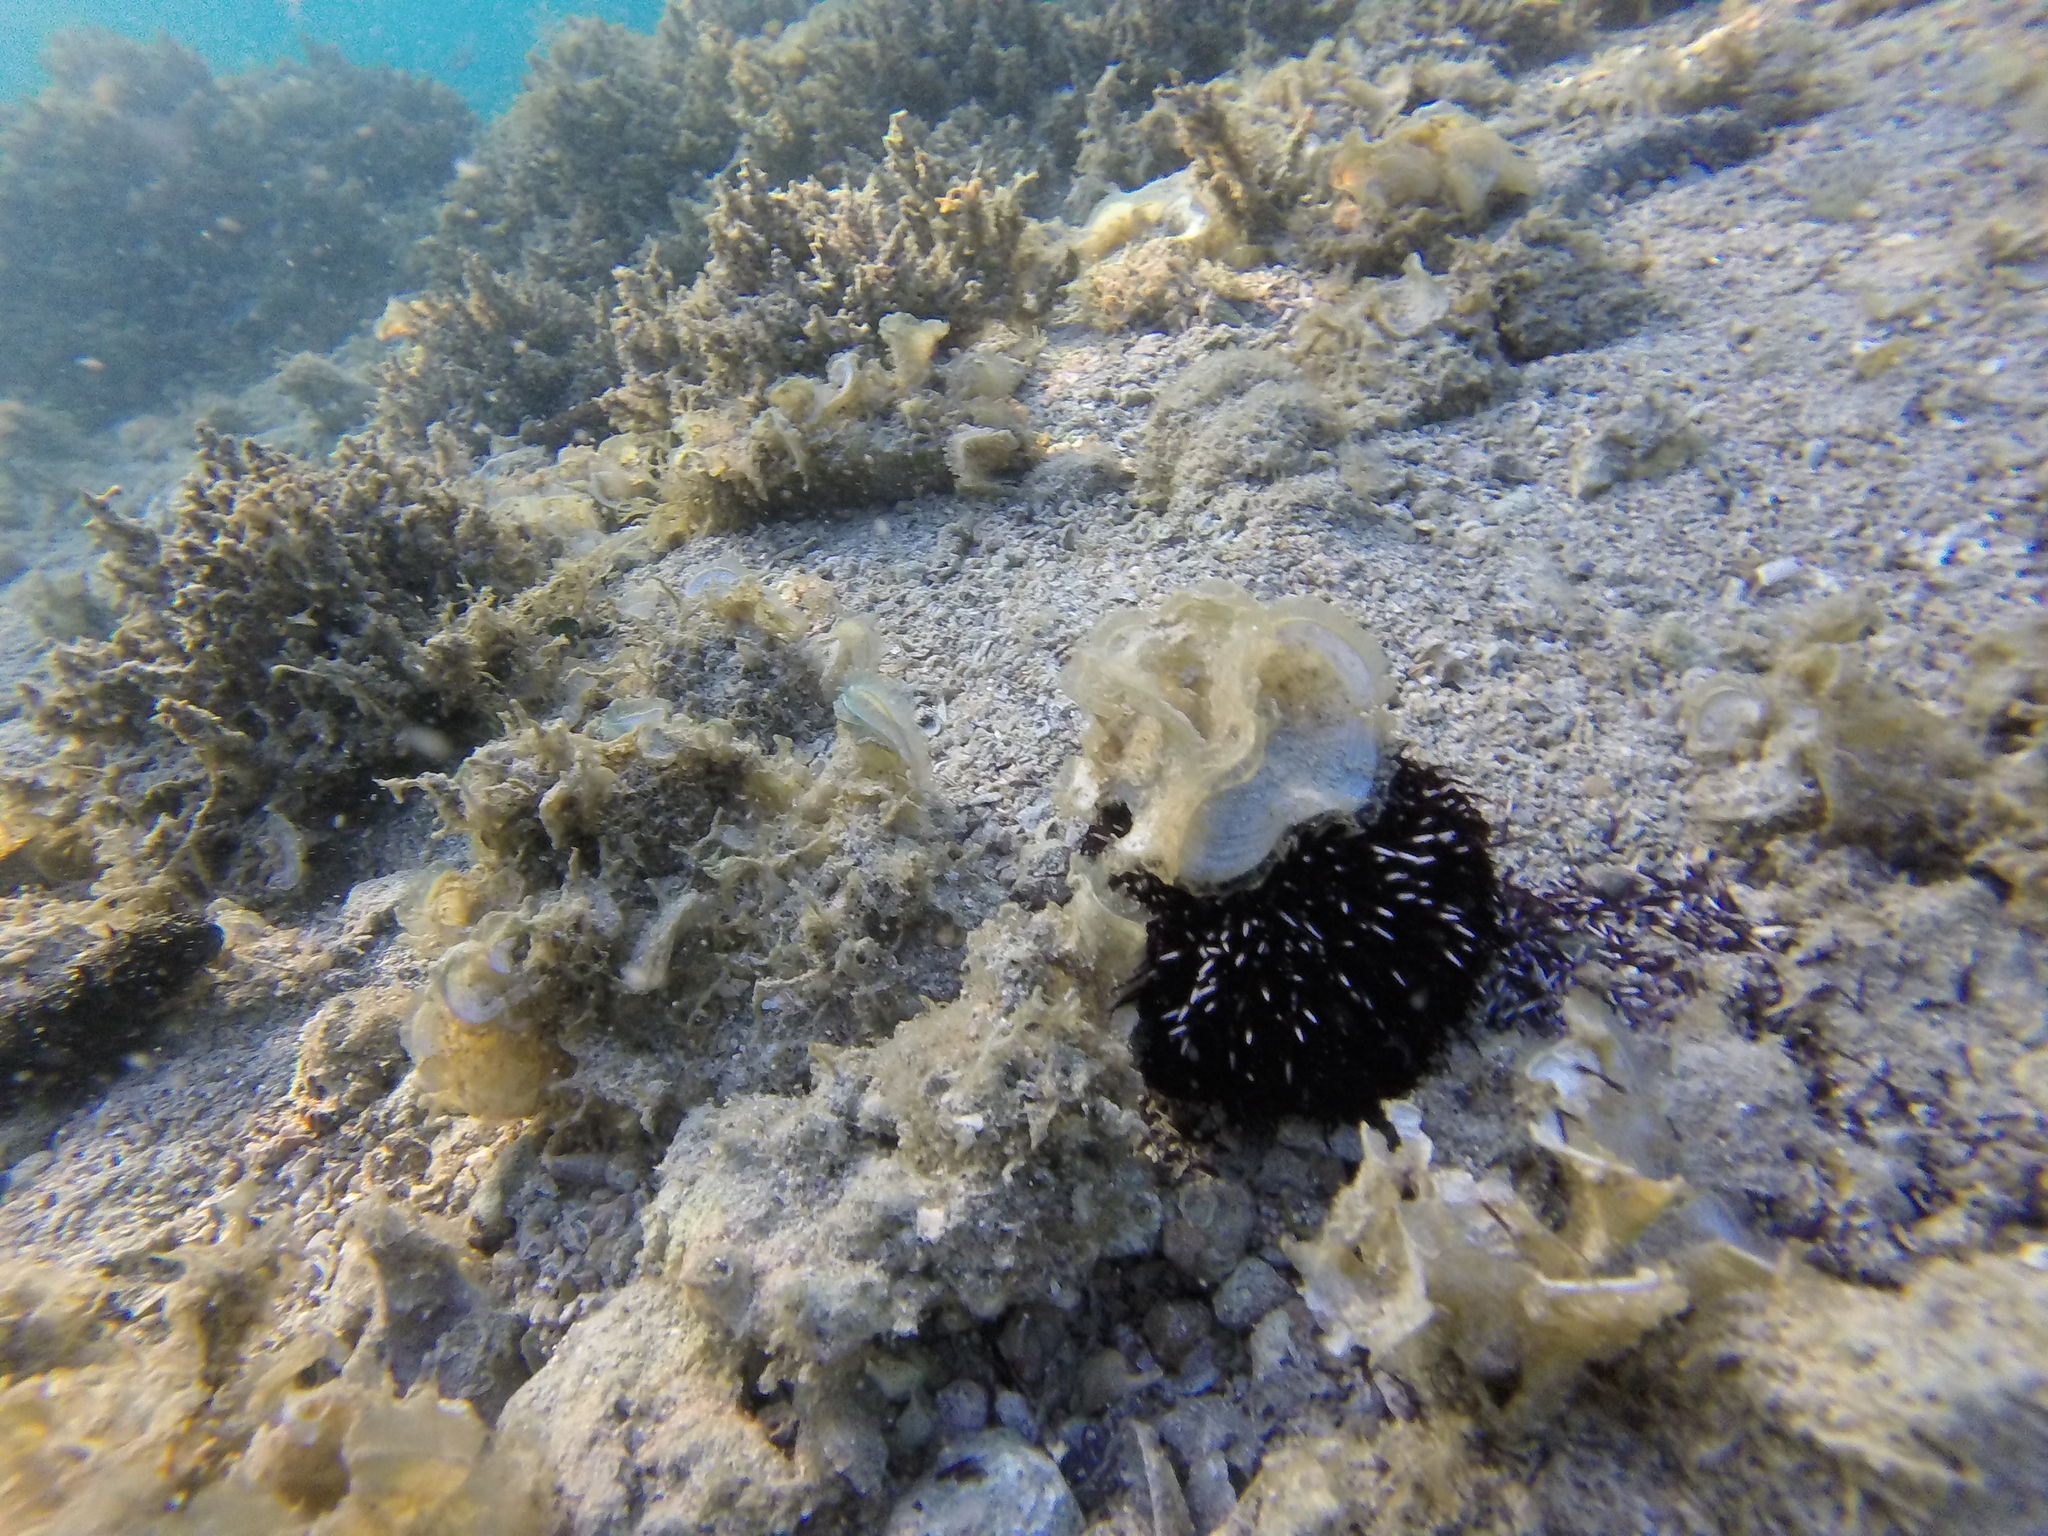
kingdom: Animalia
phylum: Echinodermata
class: Echinoidea
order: Camarodonta
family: Toxopneustidae
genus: Sphaerechinus
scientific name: Sphaerechinus granularis
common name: Violet sea urchin
